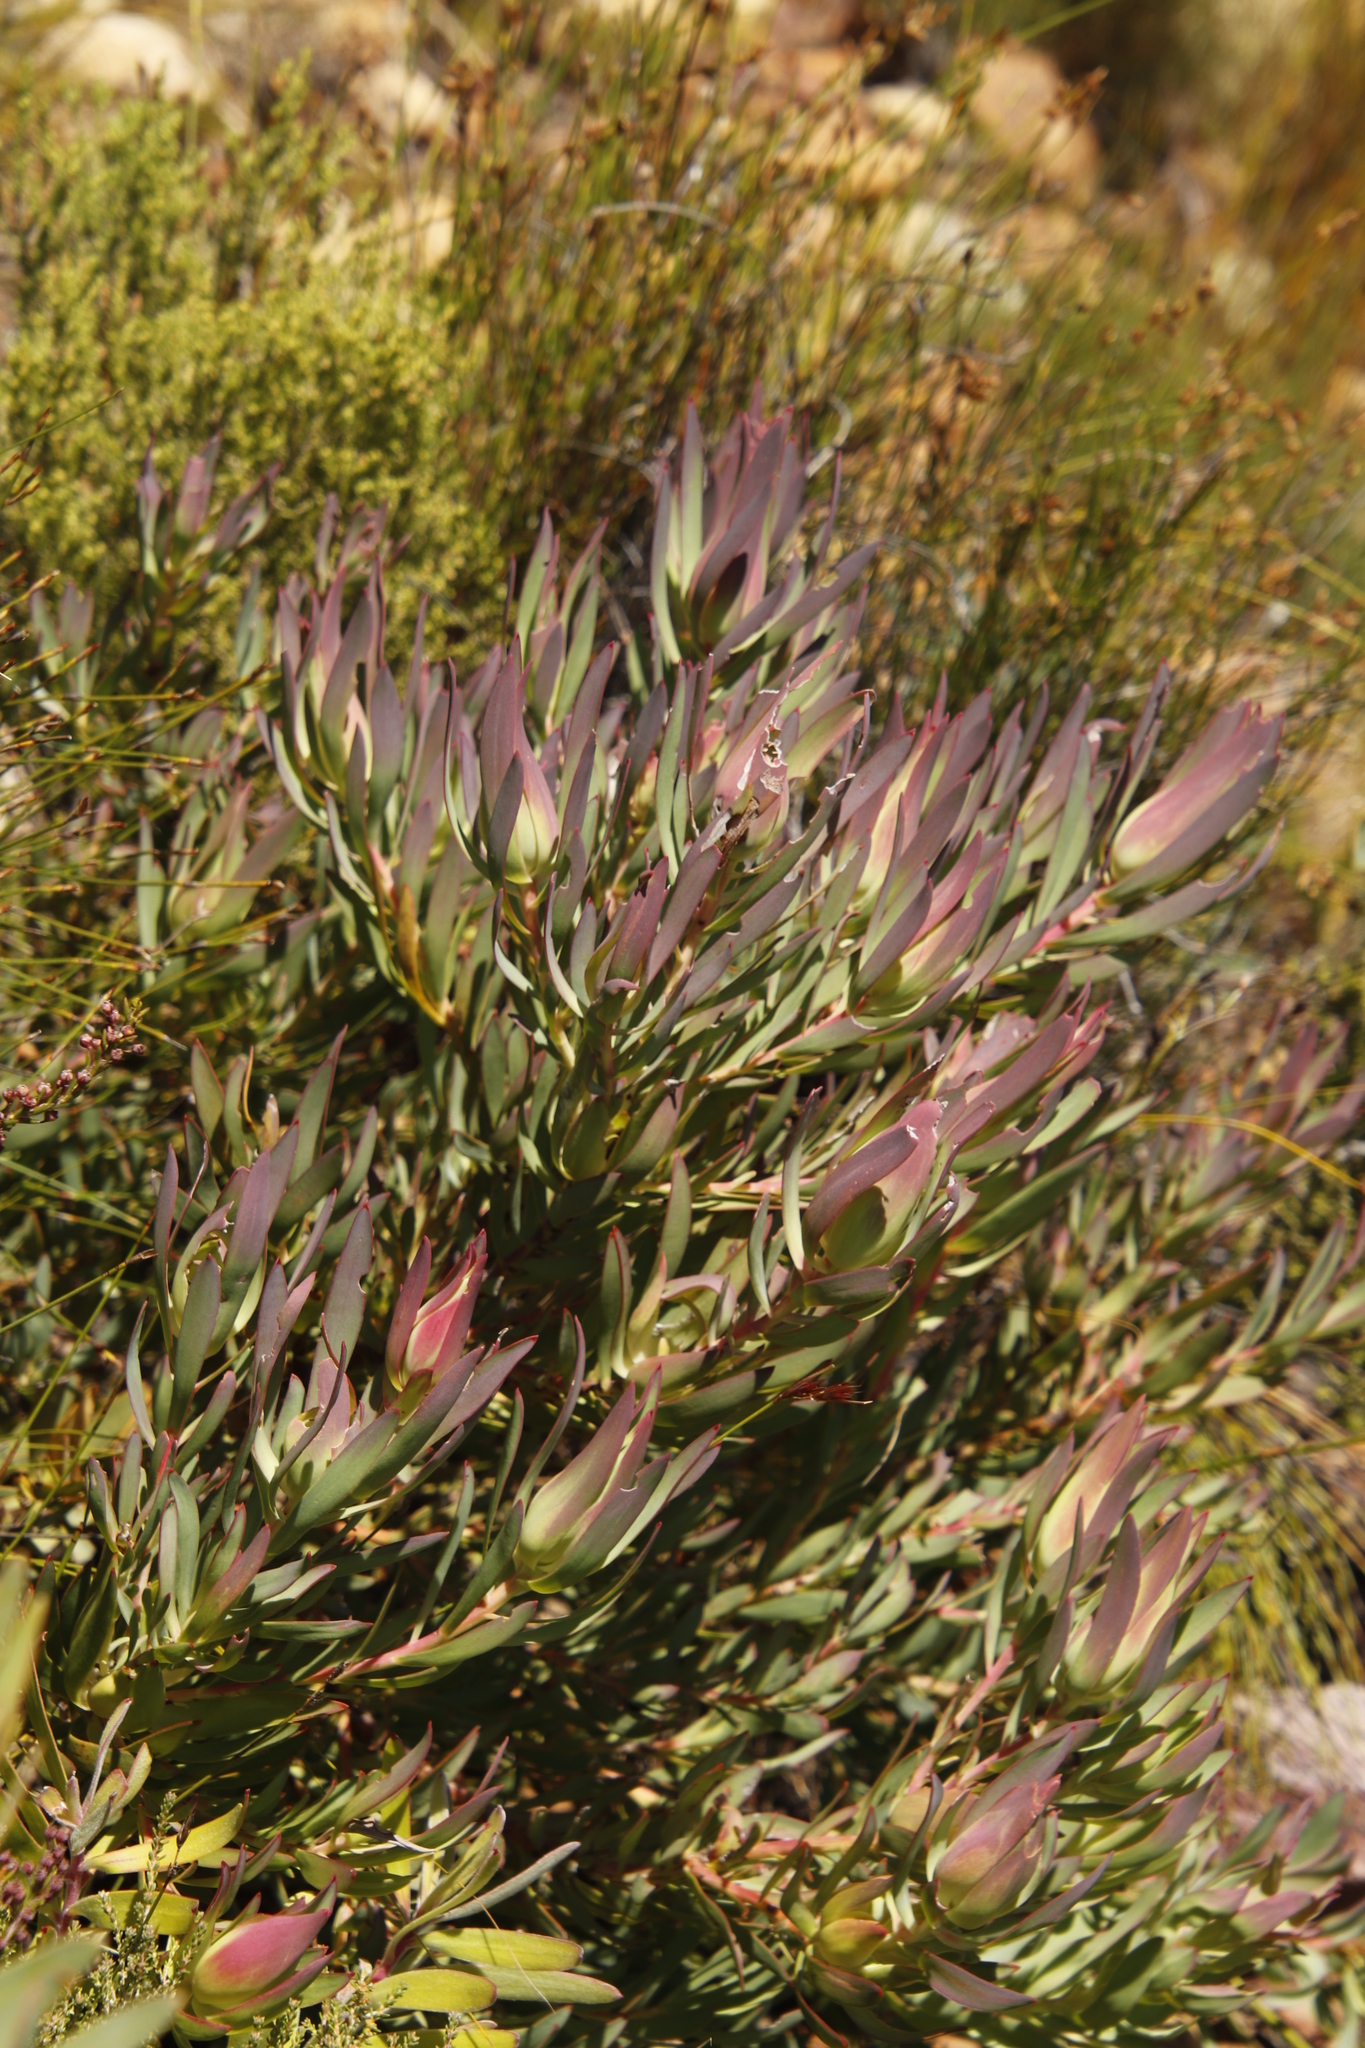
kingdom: Plantae
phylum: Tracheophyta
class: Magnoliopsida
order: Proteales
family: Proteaceae
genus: Leucadendron
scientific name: Leucadendron salignum
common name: Common sunshine conebush
